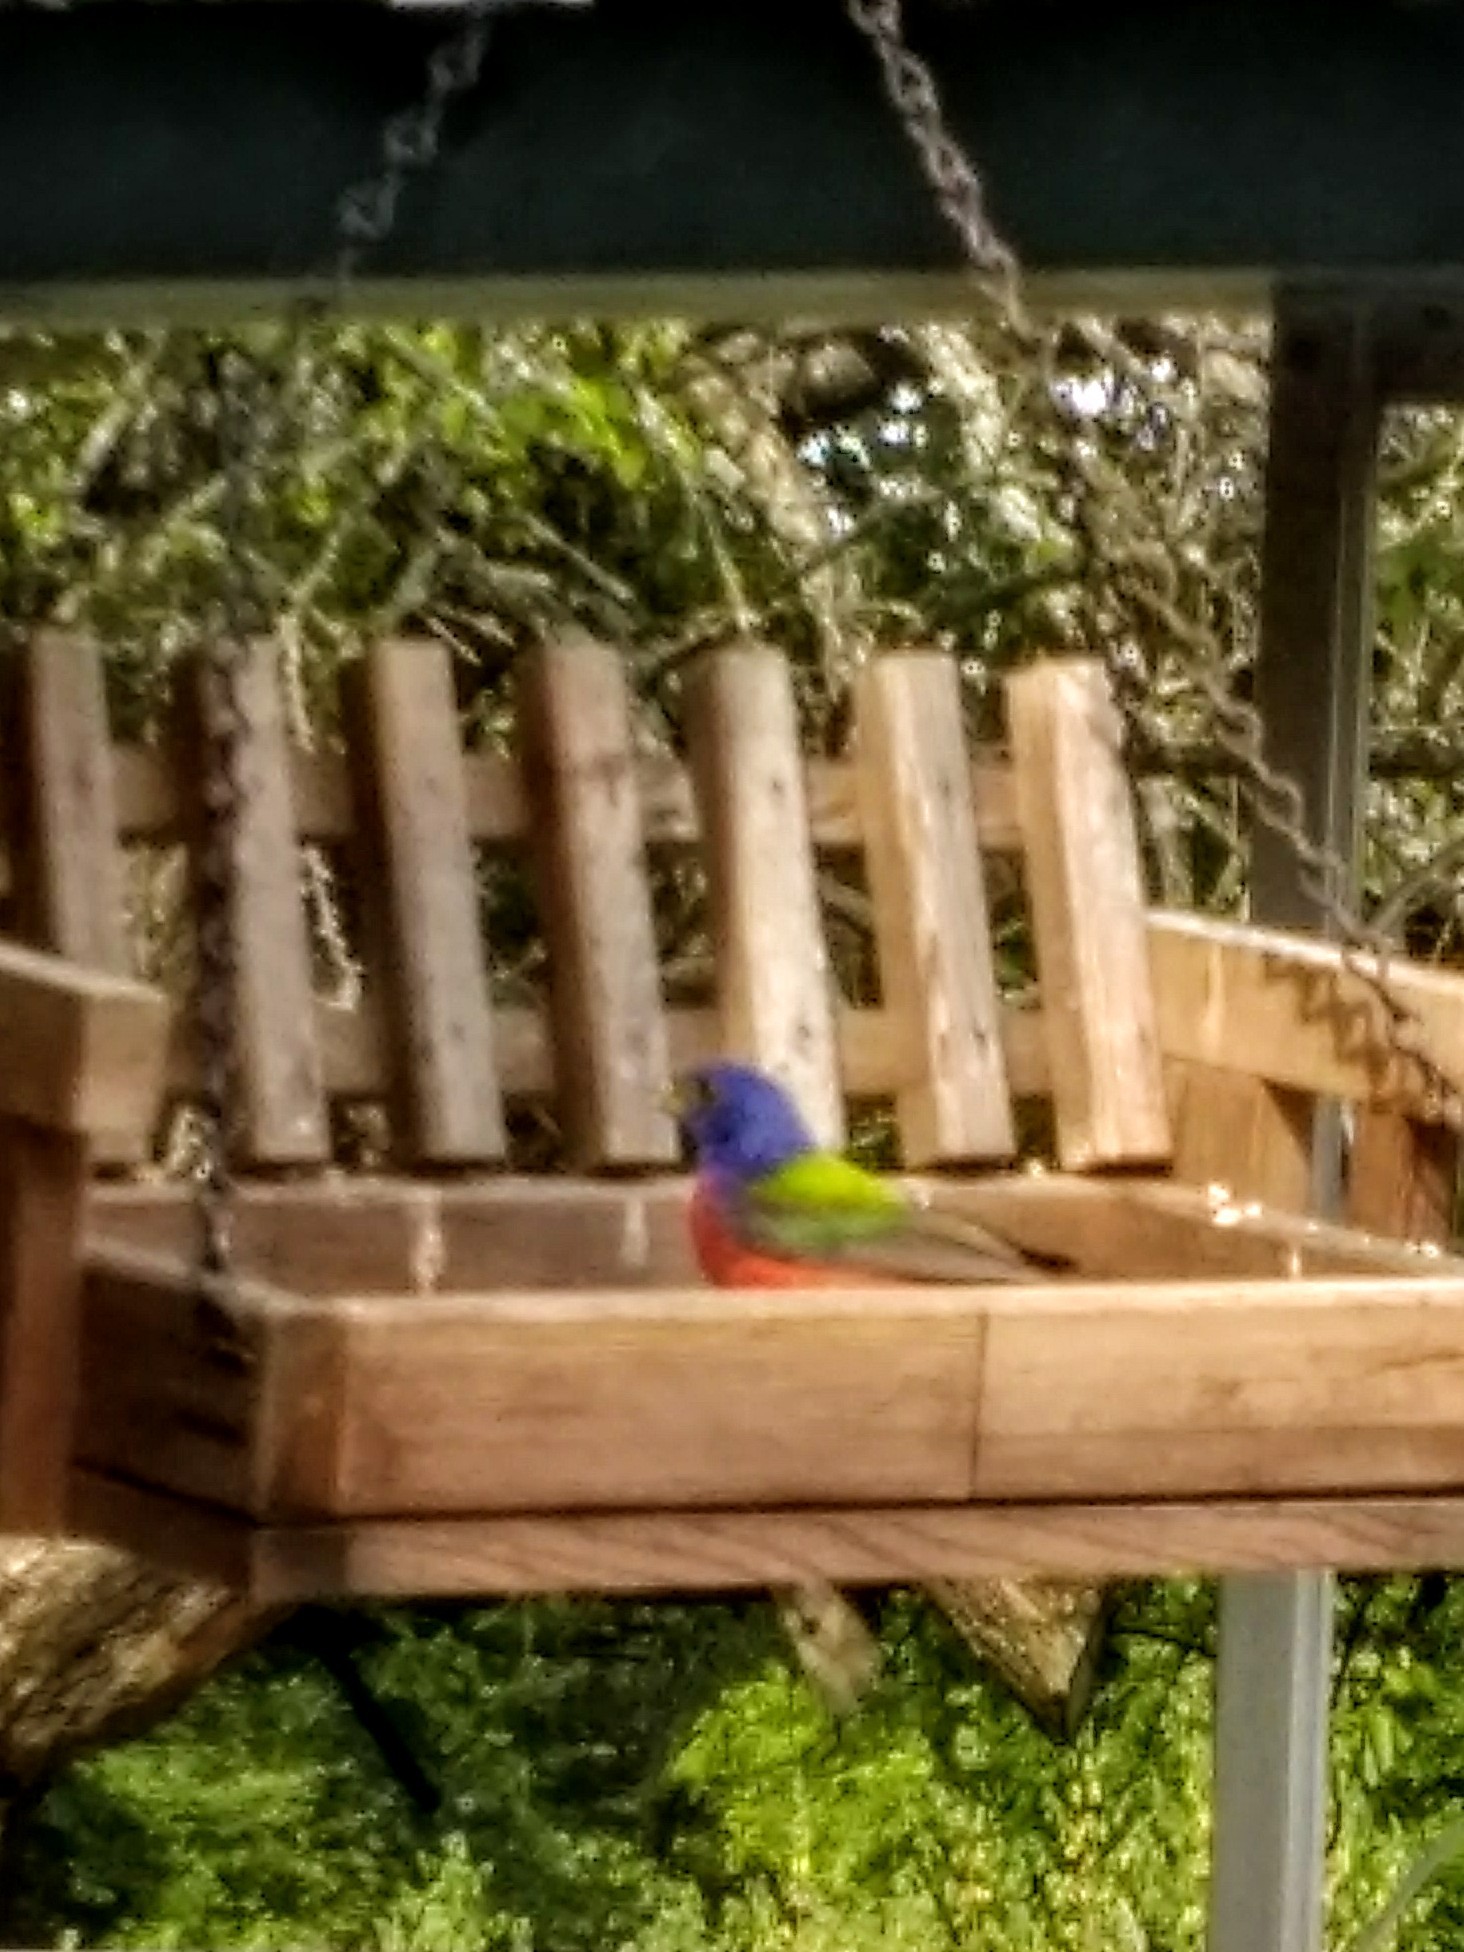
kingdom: Animalia
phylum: Chordata
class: Aves
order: Passeriformes
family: Cardinalidae
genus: Passerina
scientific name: Passerina ciris
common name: Painted bunting
